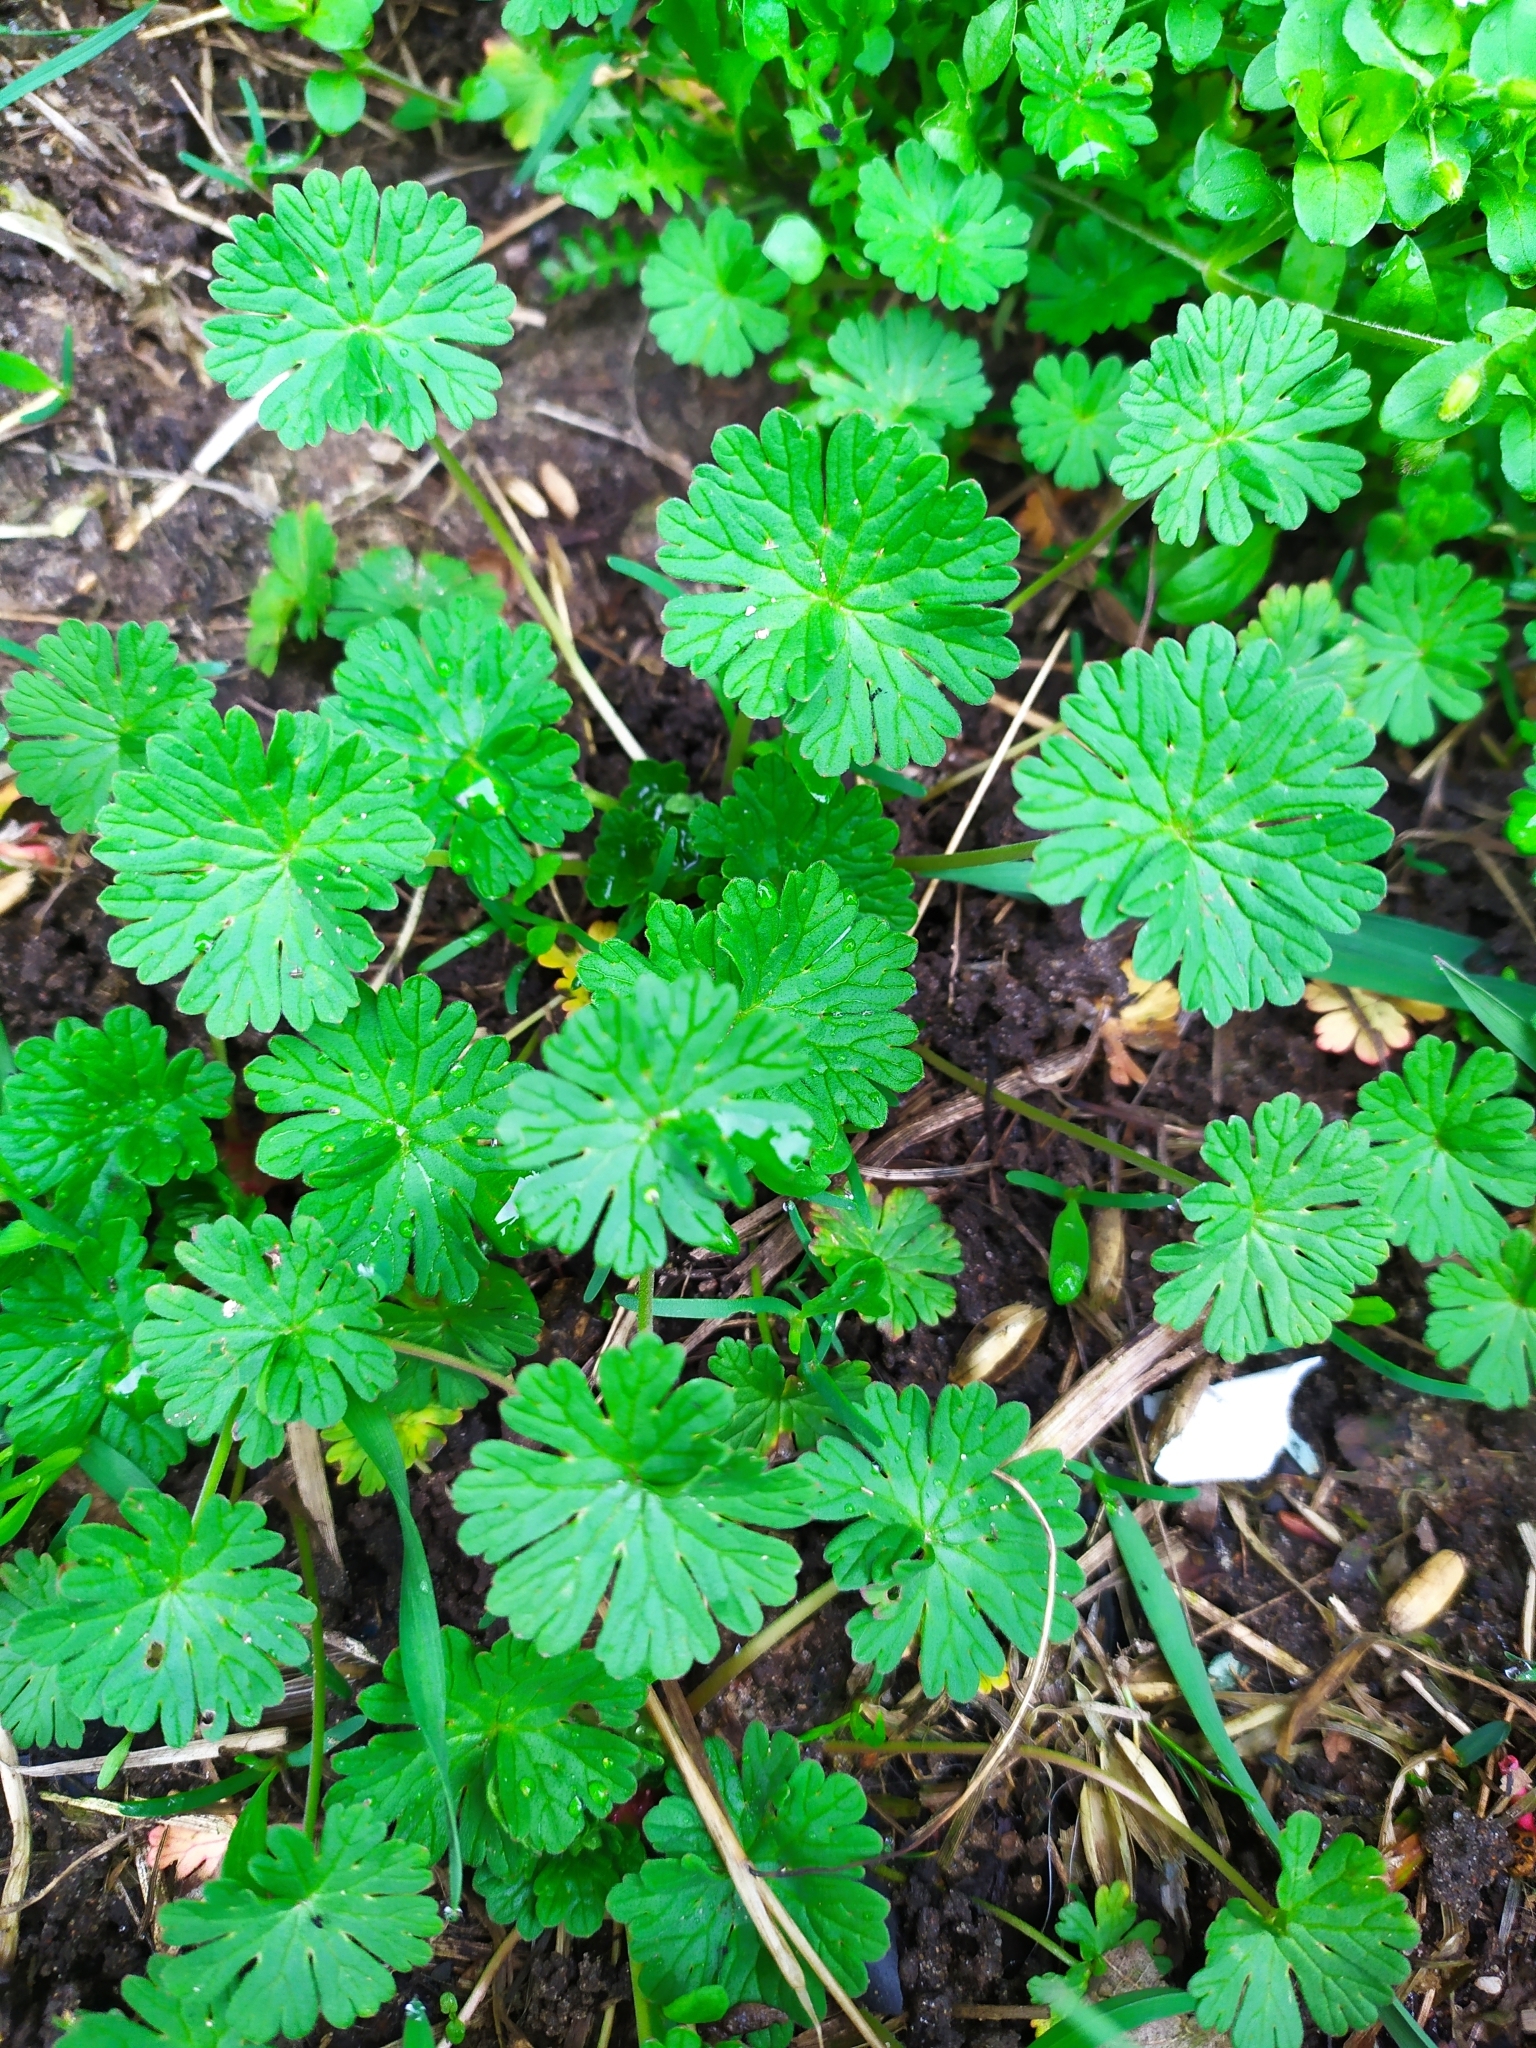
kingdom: Plantae
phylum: Tracheophyta
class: Magnoliopsida
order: Geraniales
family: Geraniaceae
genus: Geranium
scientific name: Geranium pusillum
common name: Small geranium
